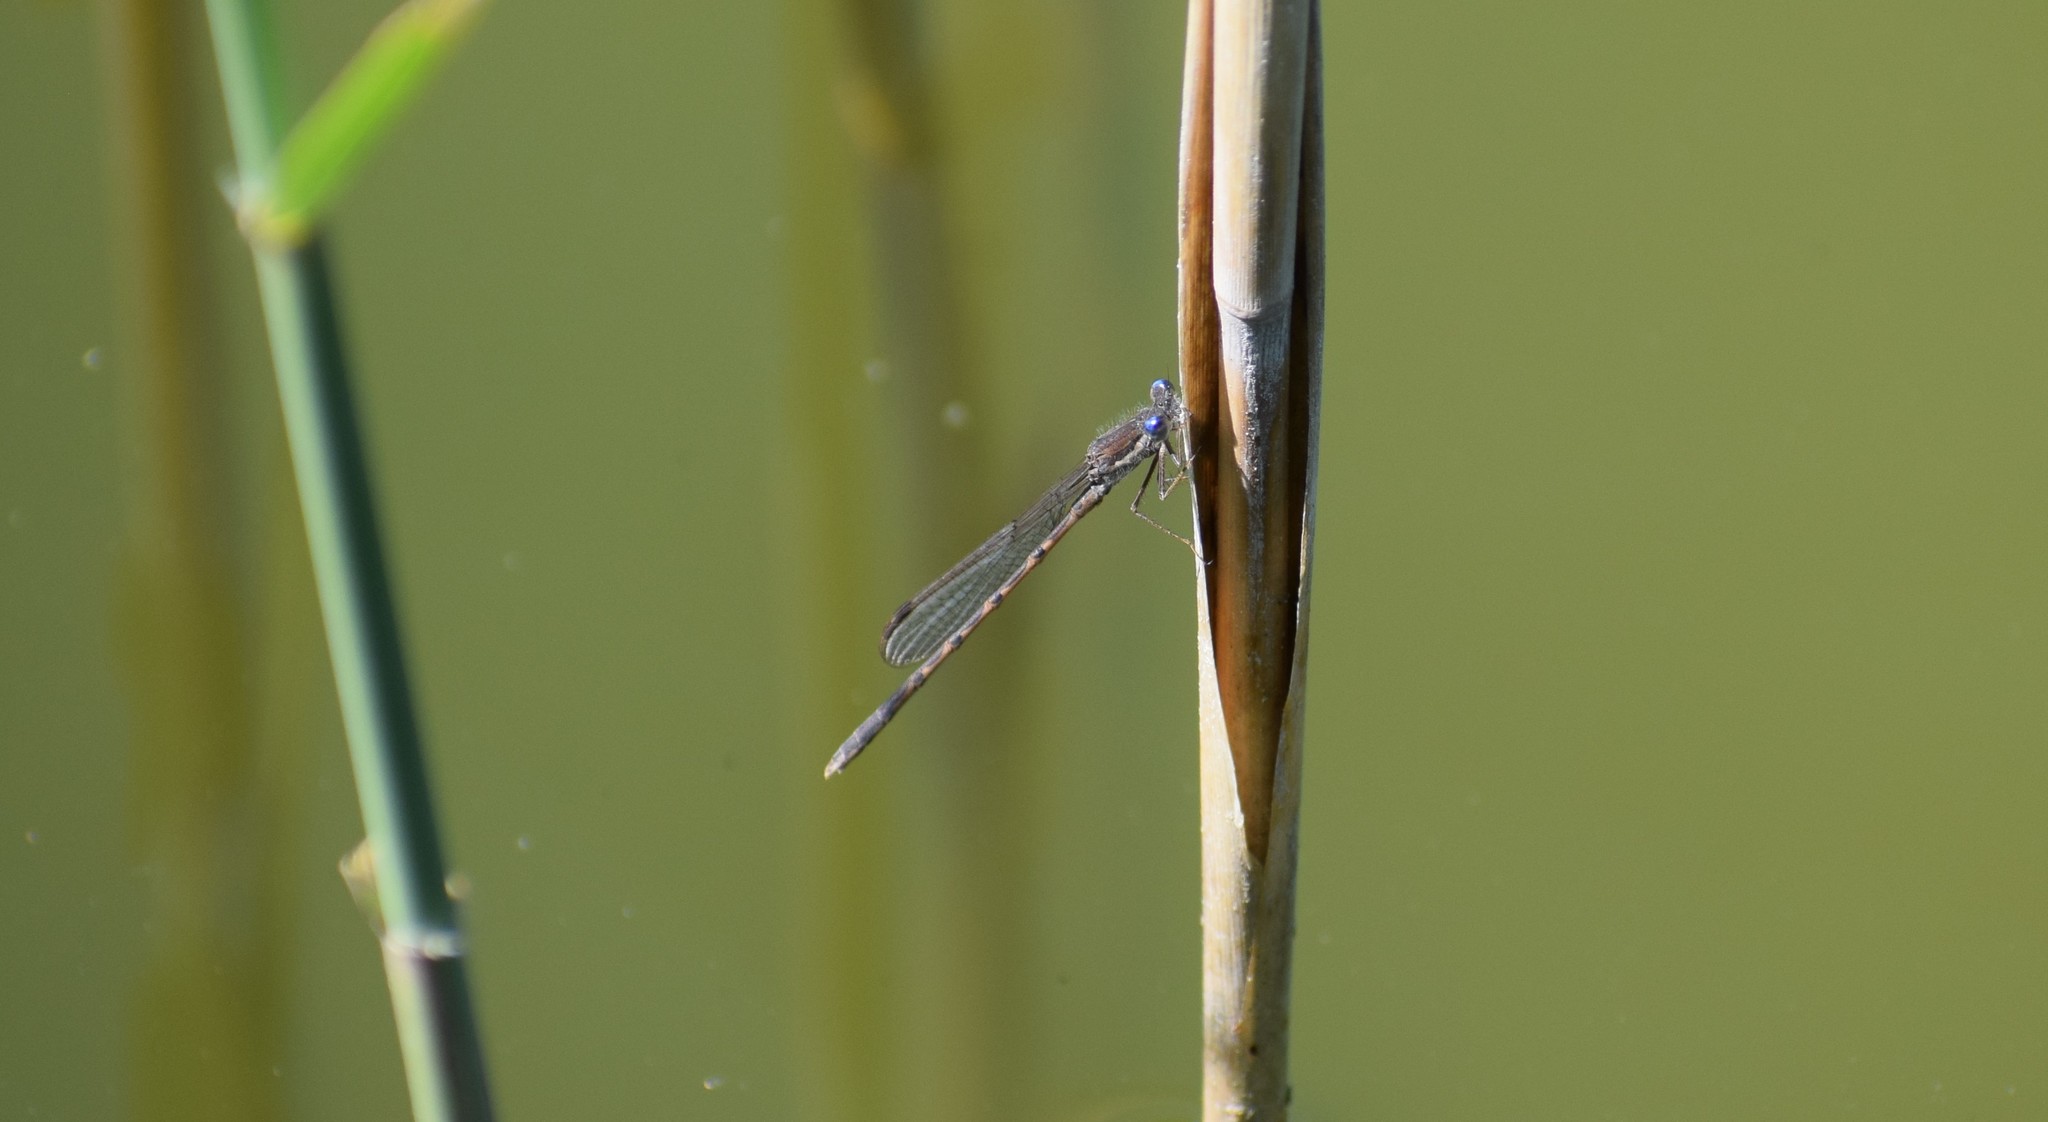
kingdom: Animalia
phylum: Arthropoda
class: Insecta
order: Odonata
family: Lestidae
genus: Sympecma
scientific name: Sympecma fusca
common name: Common winter damsel
